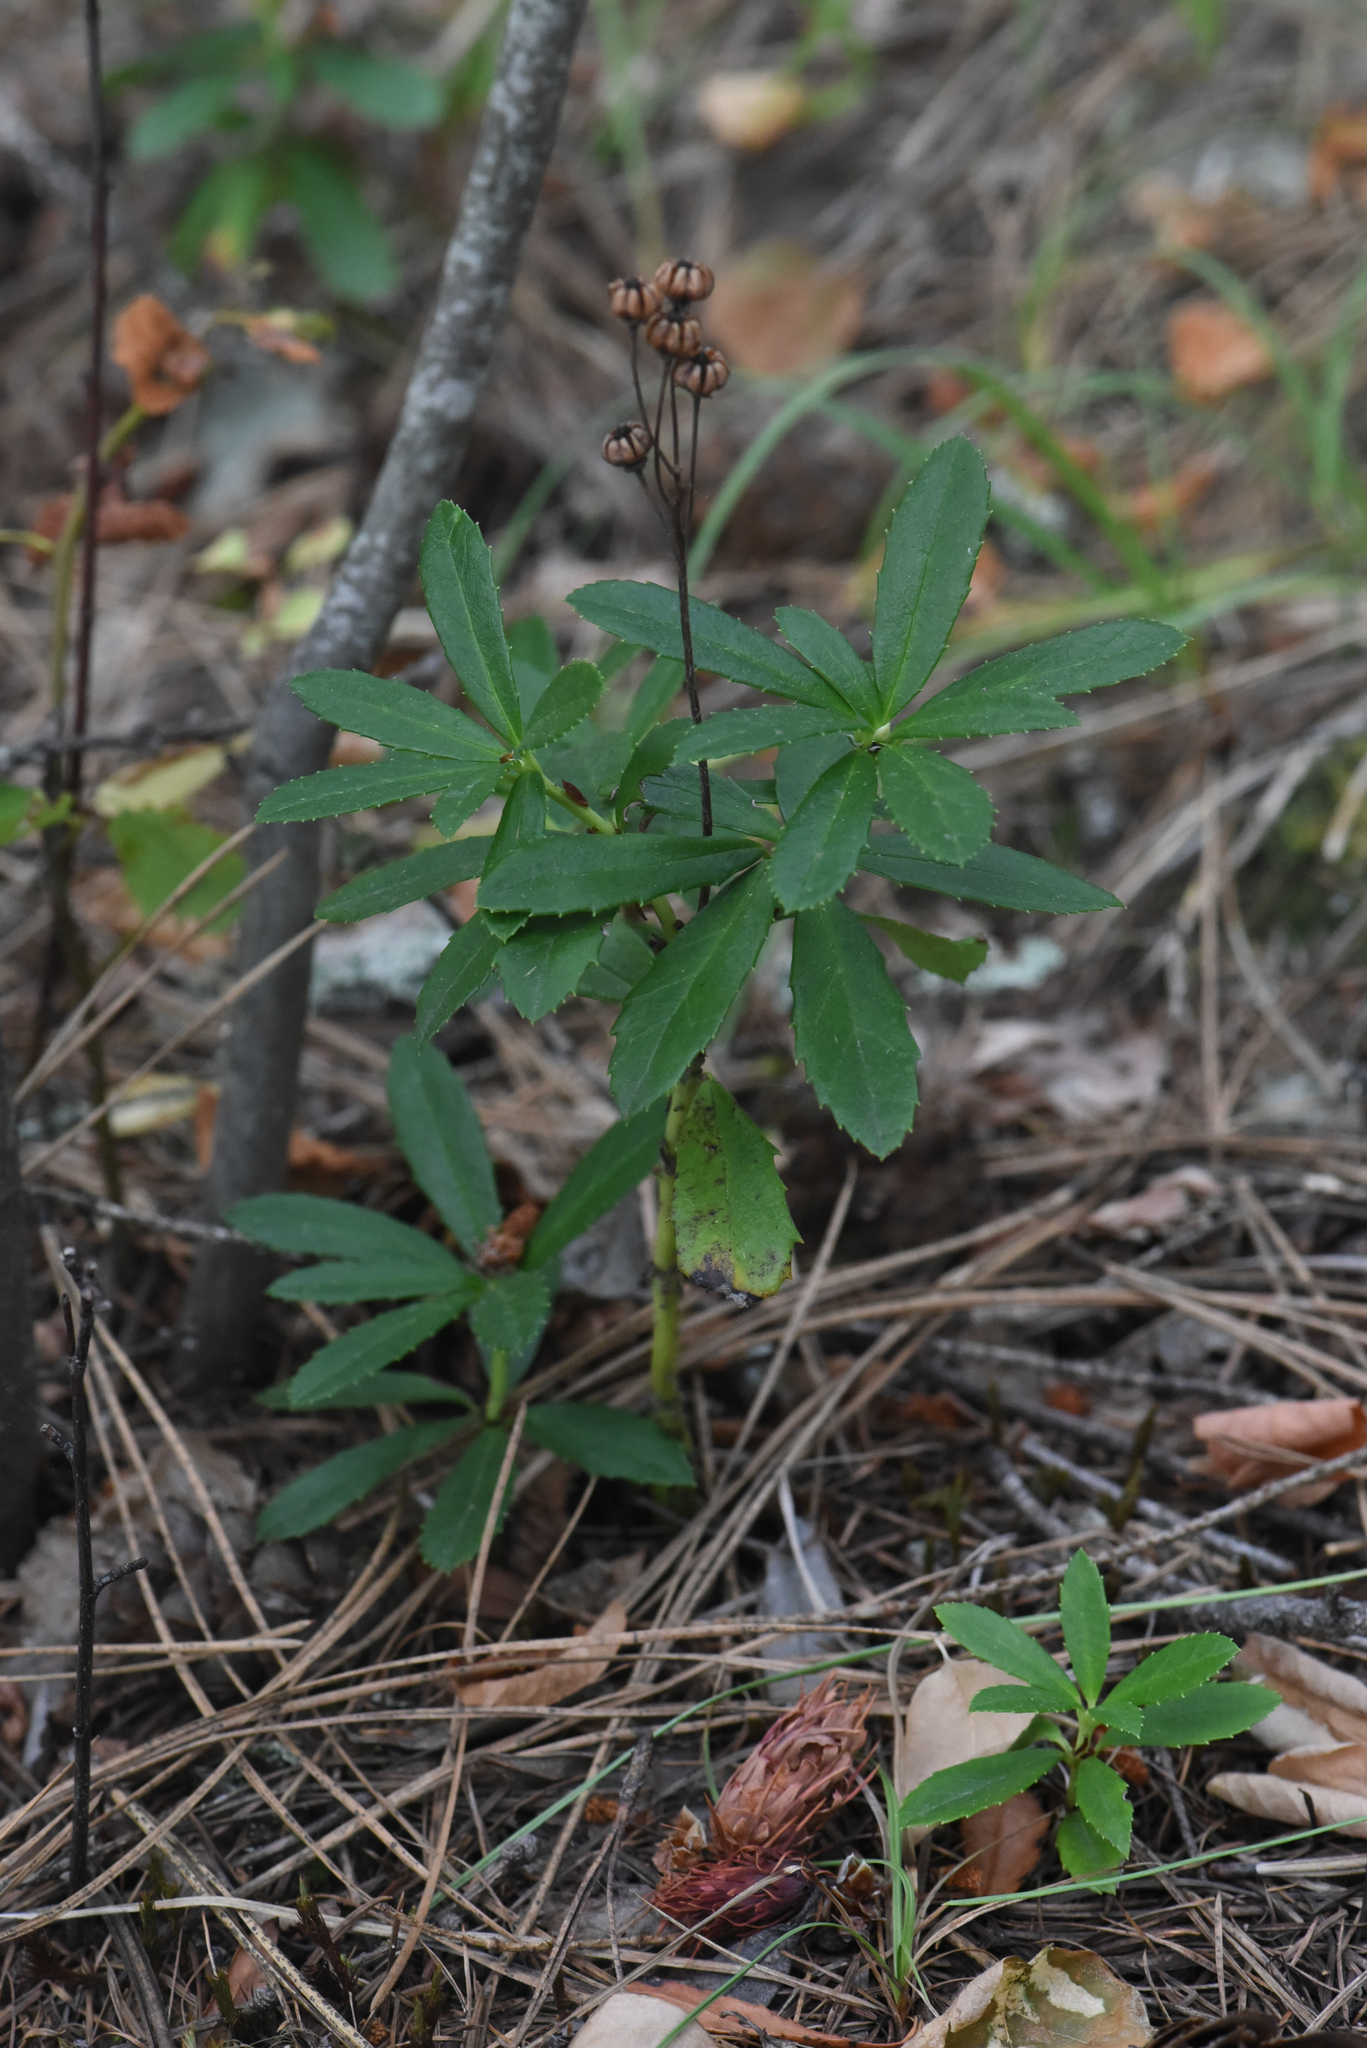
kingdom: Plantae
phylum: Tracheophyta
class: Magnoliopsida
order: Ericales
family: Ericaceae
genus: Chimaphila
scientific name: Chimaphila umbellata
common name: Pipsissewa
